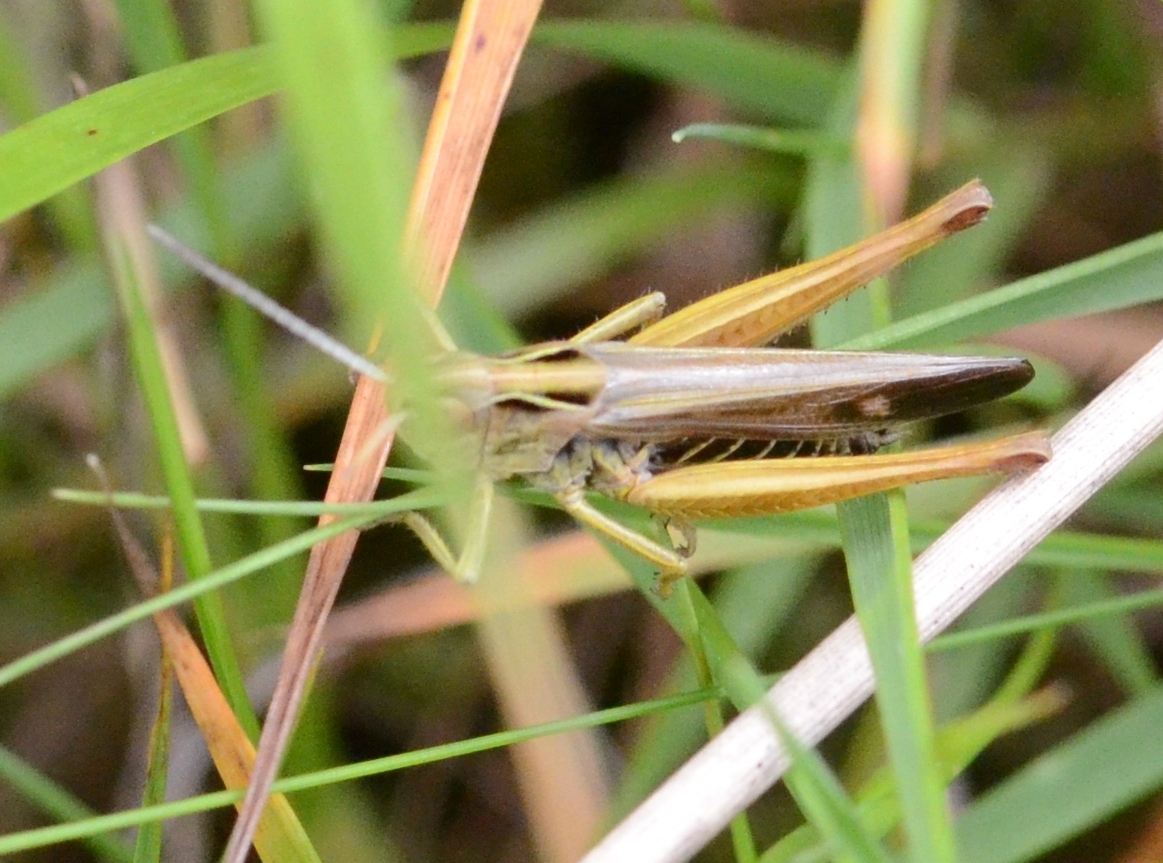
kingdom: Animalia
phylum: Arthropoda
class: Insecta
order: Orthoptera
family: Acrididae
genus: Omocestus
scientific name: Omocestus viridulus
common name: Common green grasshopper
